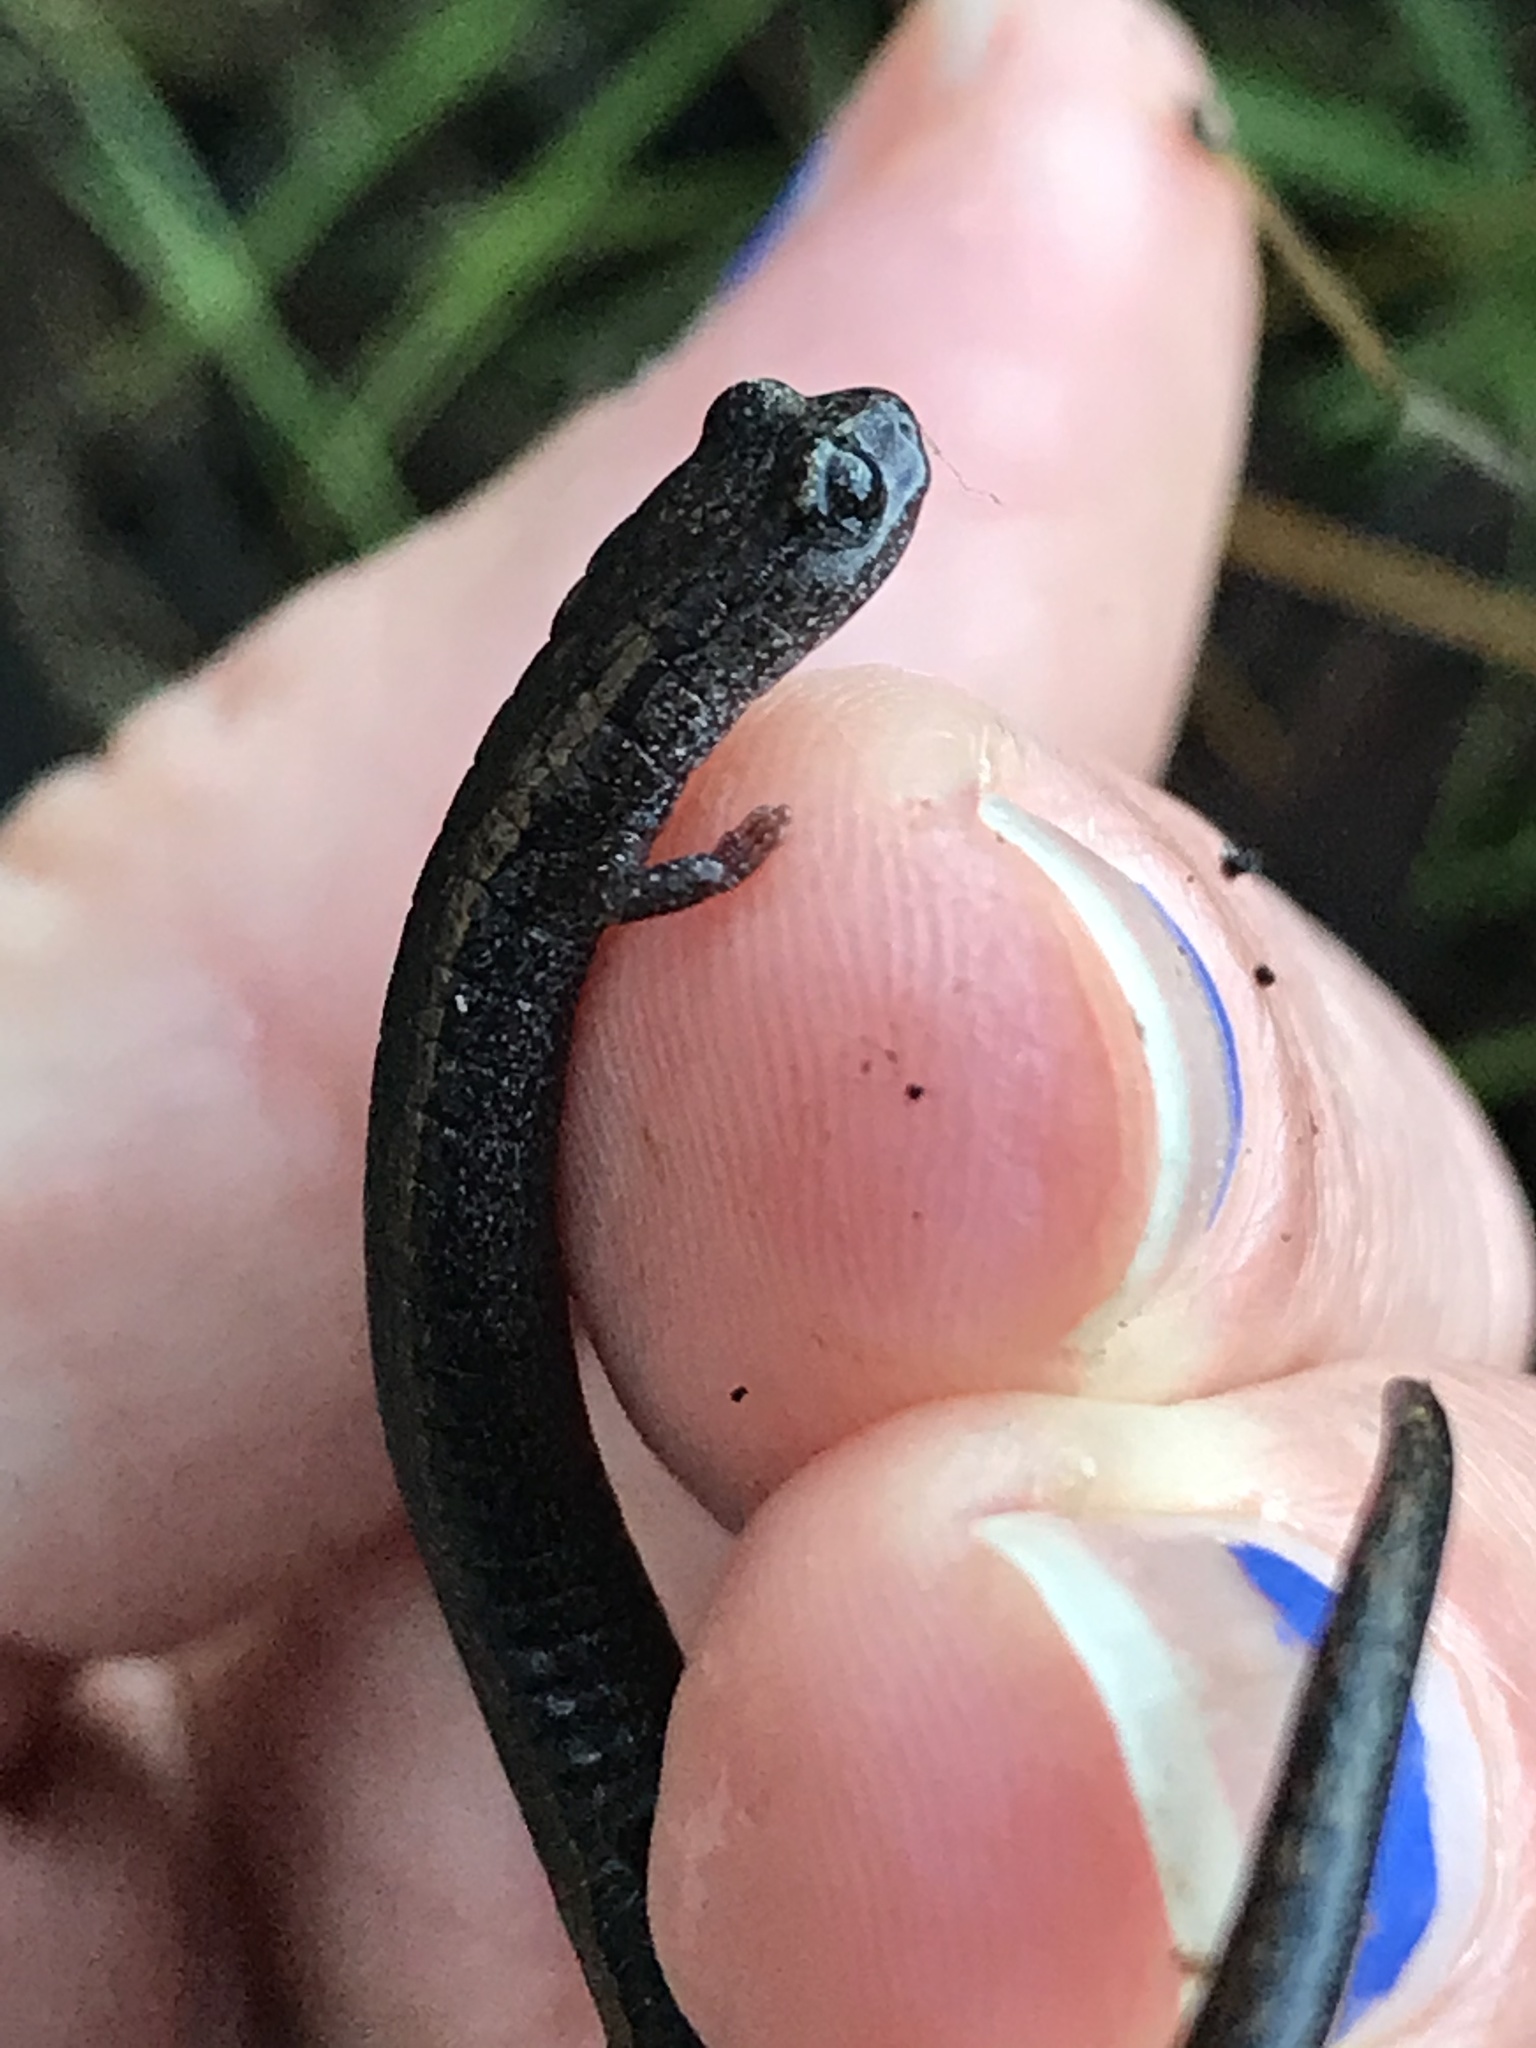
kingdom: Animalia
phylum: Chordata
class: Amphibia
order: Caudata
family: Plethodontidae
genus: Batrachoseps
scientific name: Batrachoseps attenuatus
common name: California slender salamander
